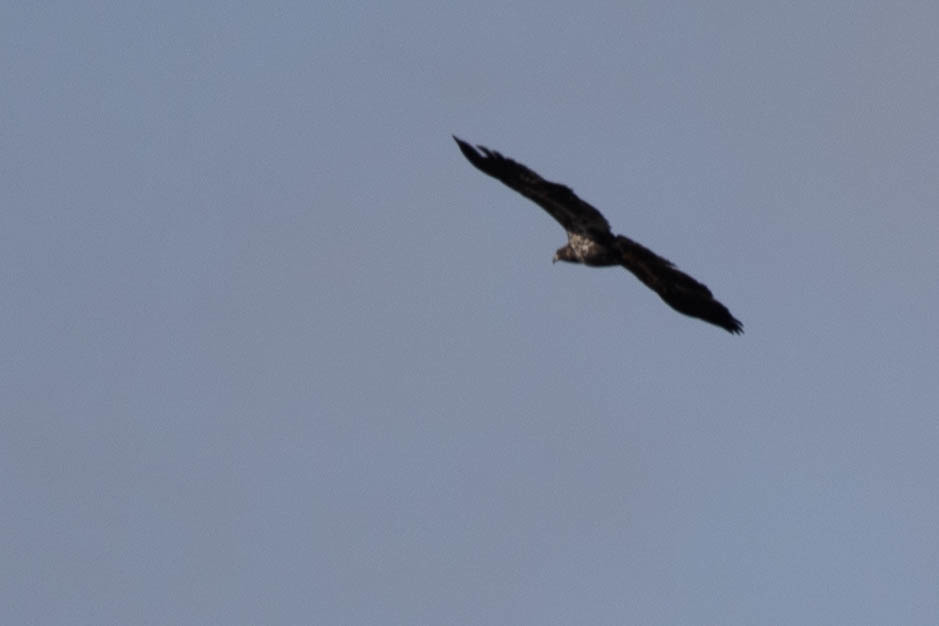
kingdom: Animalia
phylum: Chordata
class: Aves
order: Accipitriformes
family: Accipitridae
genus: Haliaeetus
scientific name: Haliaeetus leucocephalus
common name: Bald eagle
